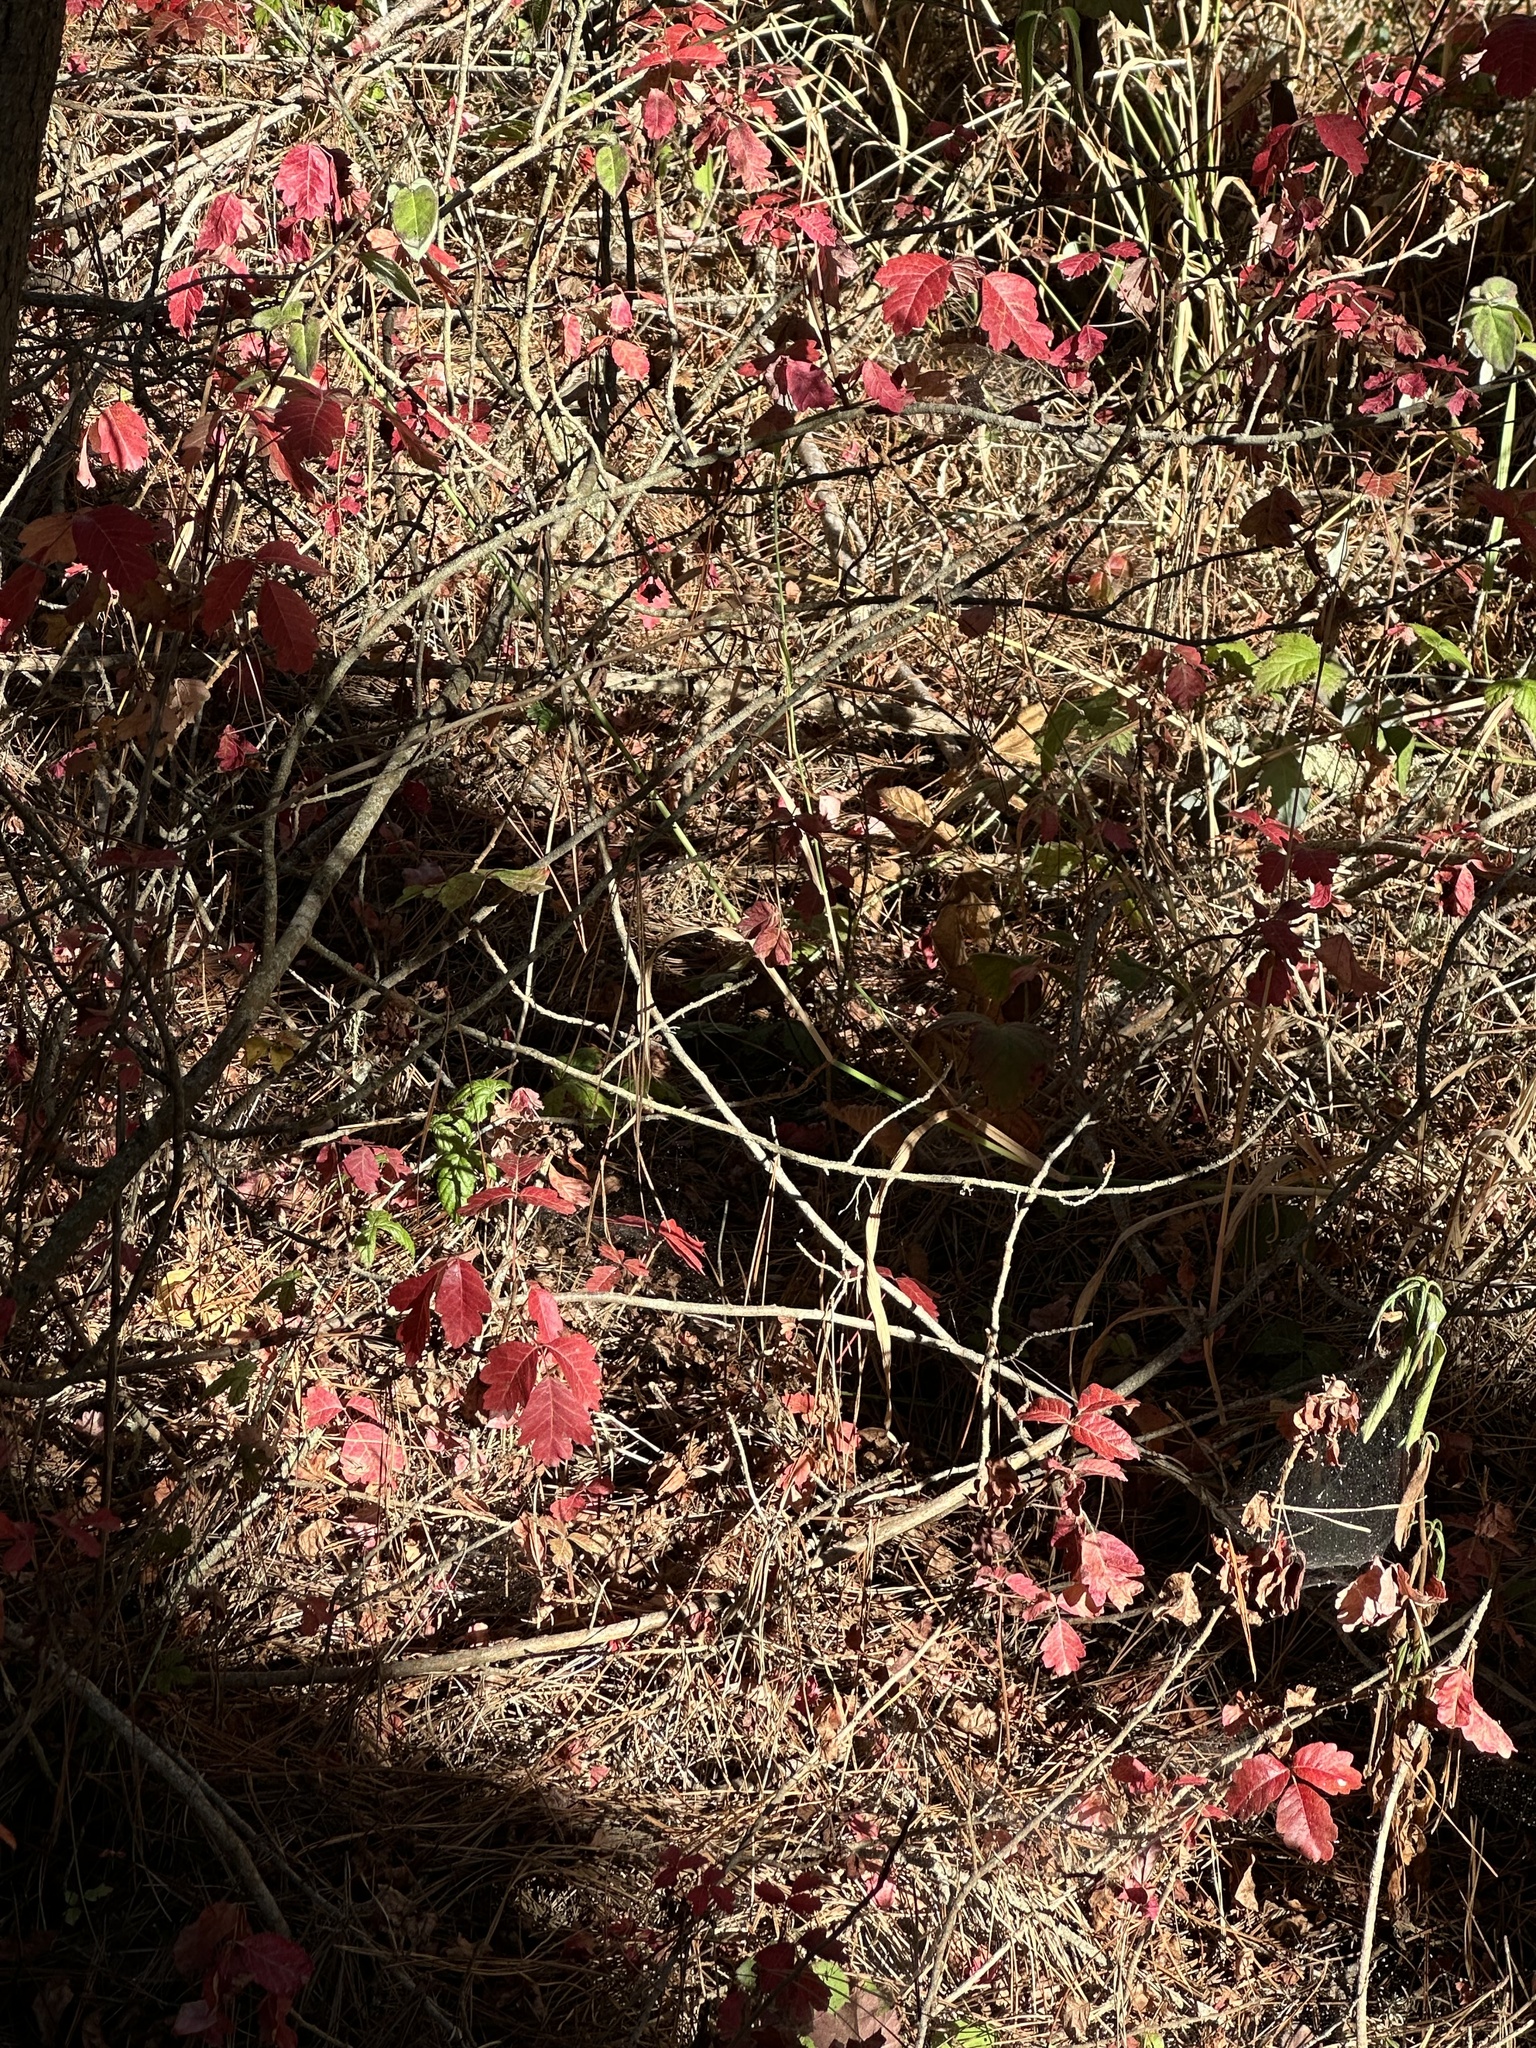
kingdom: Plantae
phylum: Tracheophyta
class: Magnoliopsida
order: Sapindales
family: Anacardiaceae
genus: Toxicodendron
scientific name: Toxicodendron diversilobum
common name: Pacific poison-oak
